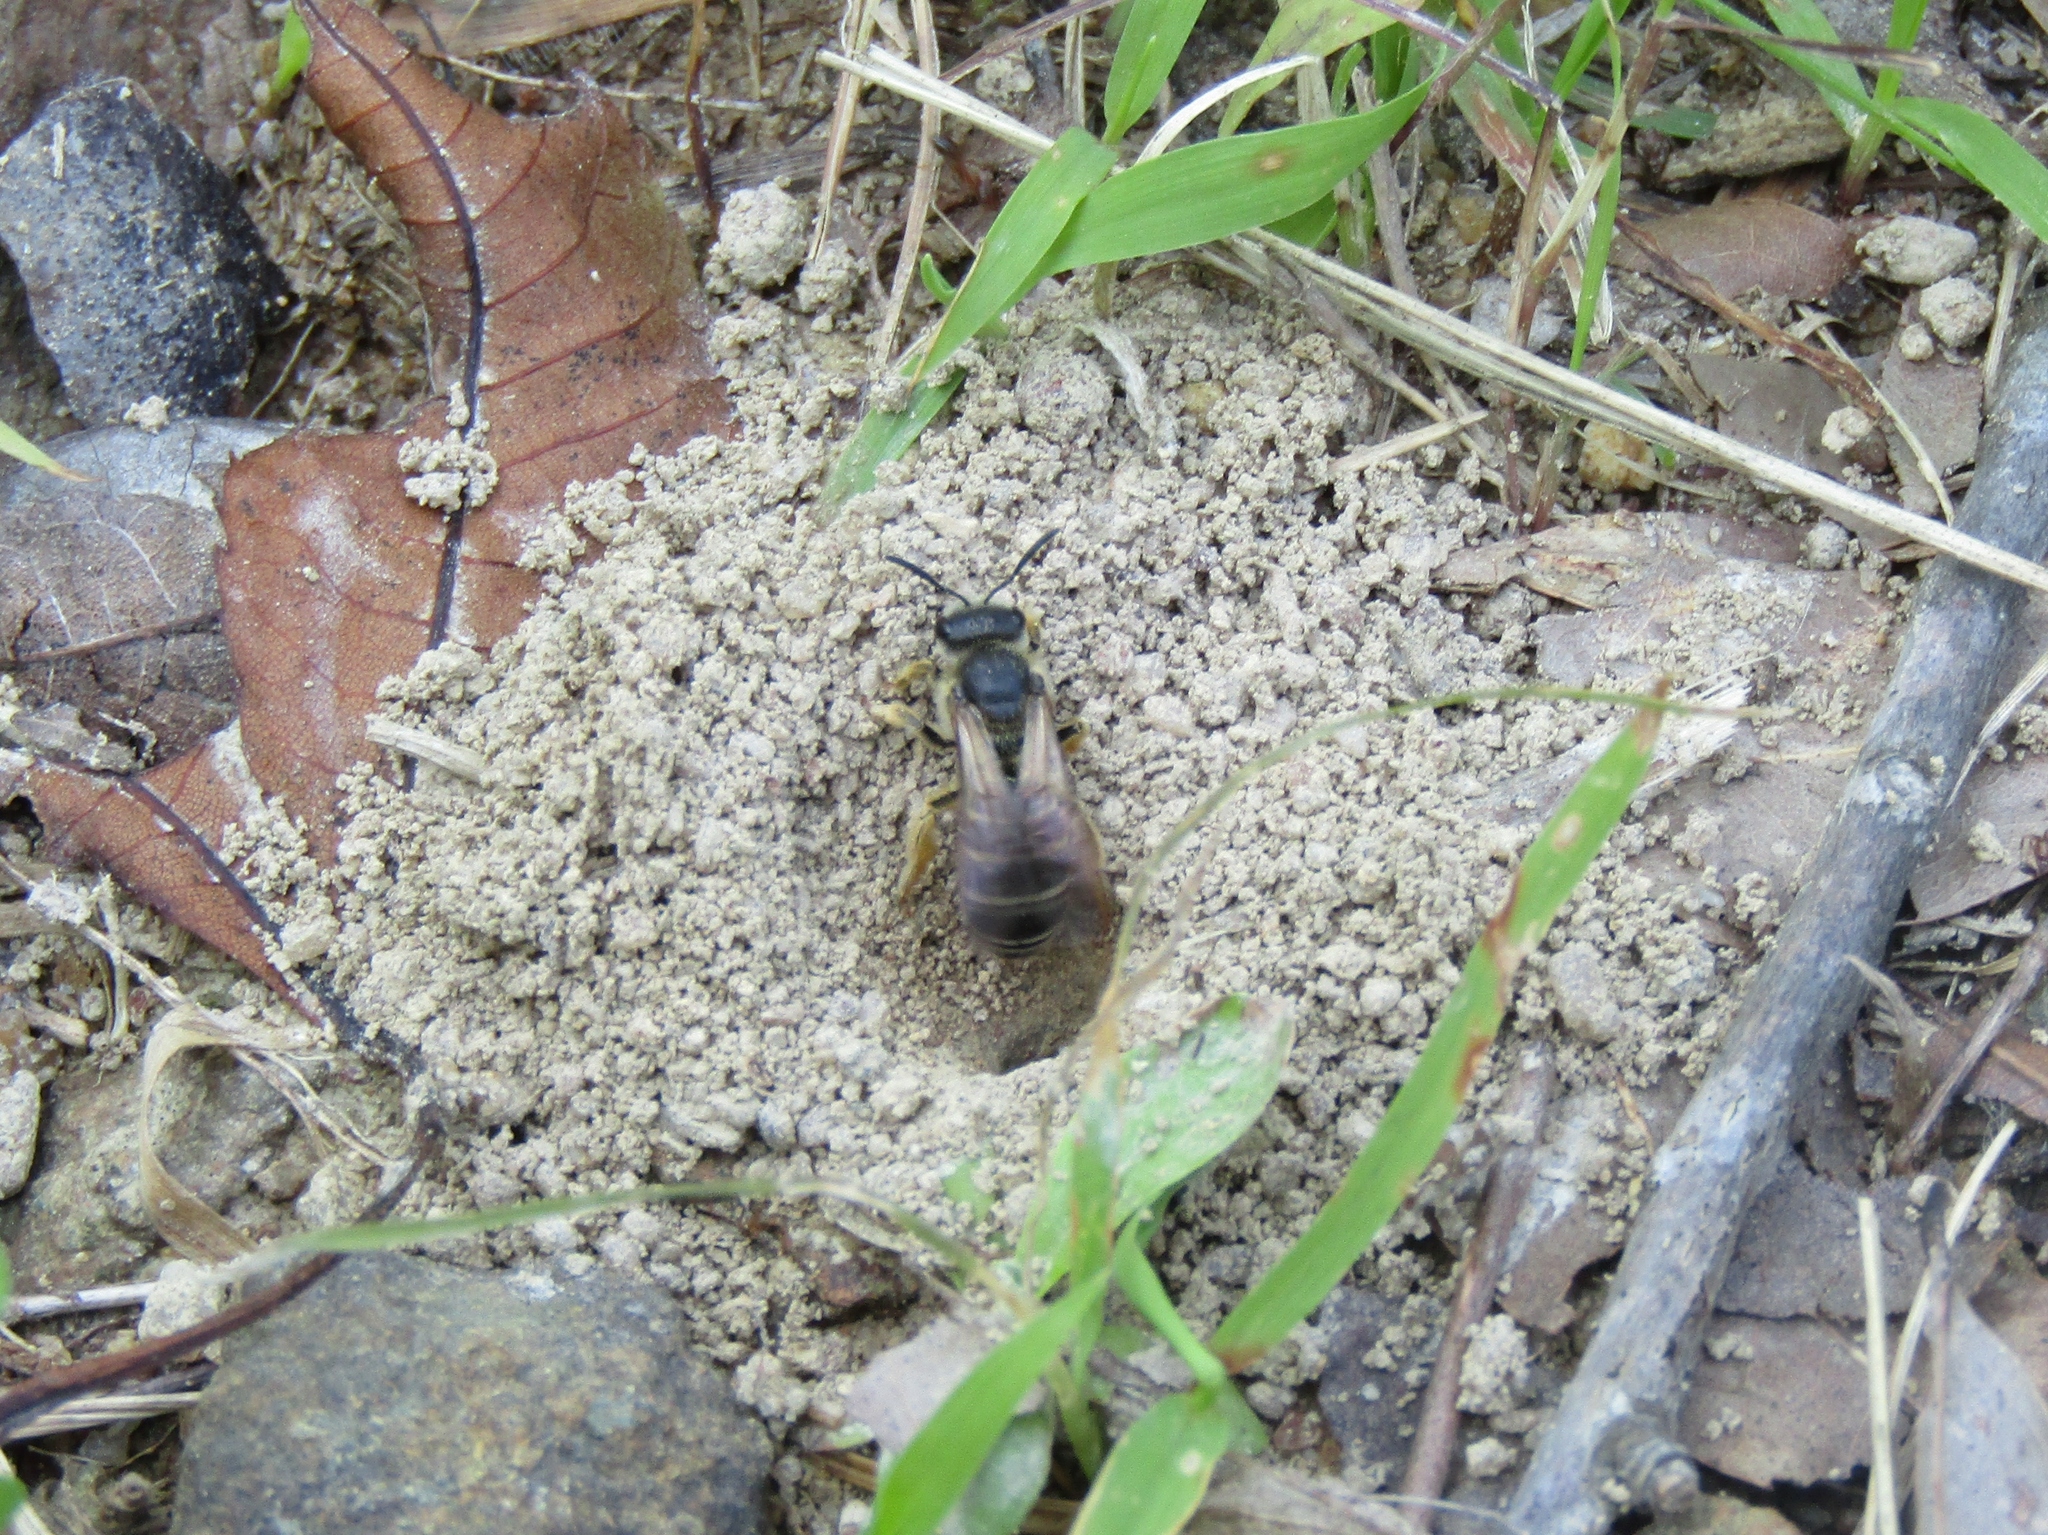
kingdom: Animalia
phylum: Arthropoda
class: Insecta
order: Hymenoptera
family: Halictidae
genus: Halictus
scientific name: Halictus rubicundus
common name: Orange-legged furrow bee
